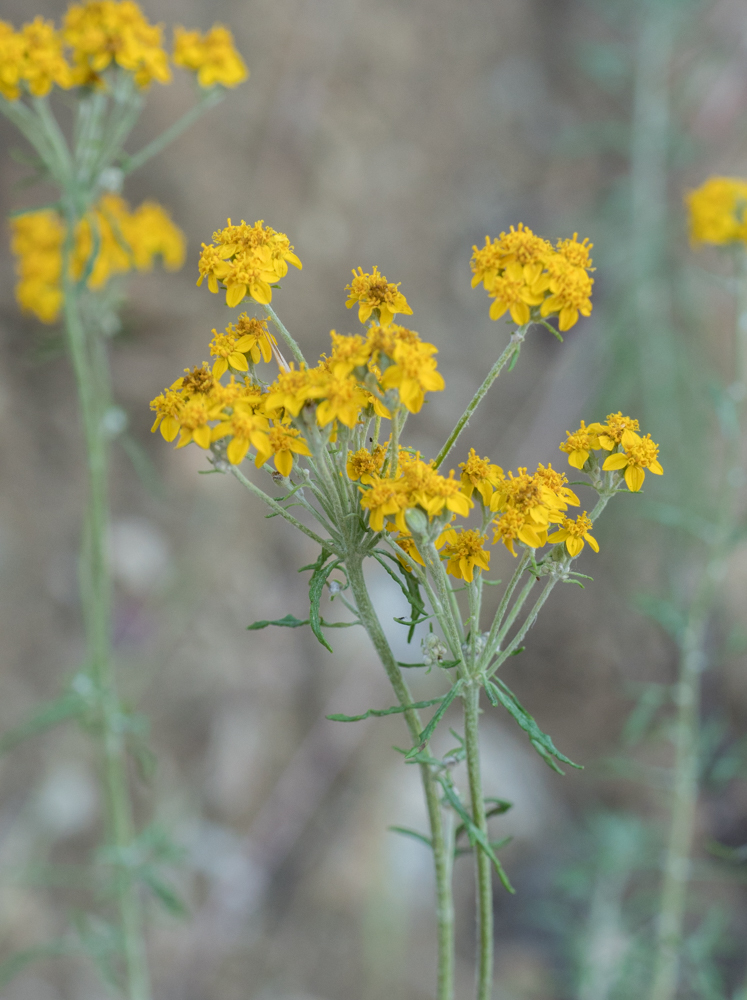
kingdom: Plantae
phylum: Tracheophyta
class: Magnoliopsida
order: Asterales
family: Asteraceae
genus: Eriophyllum
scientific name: Eriophyllum confertiflorum
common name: Golden-yarrow
